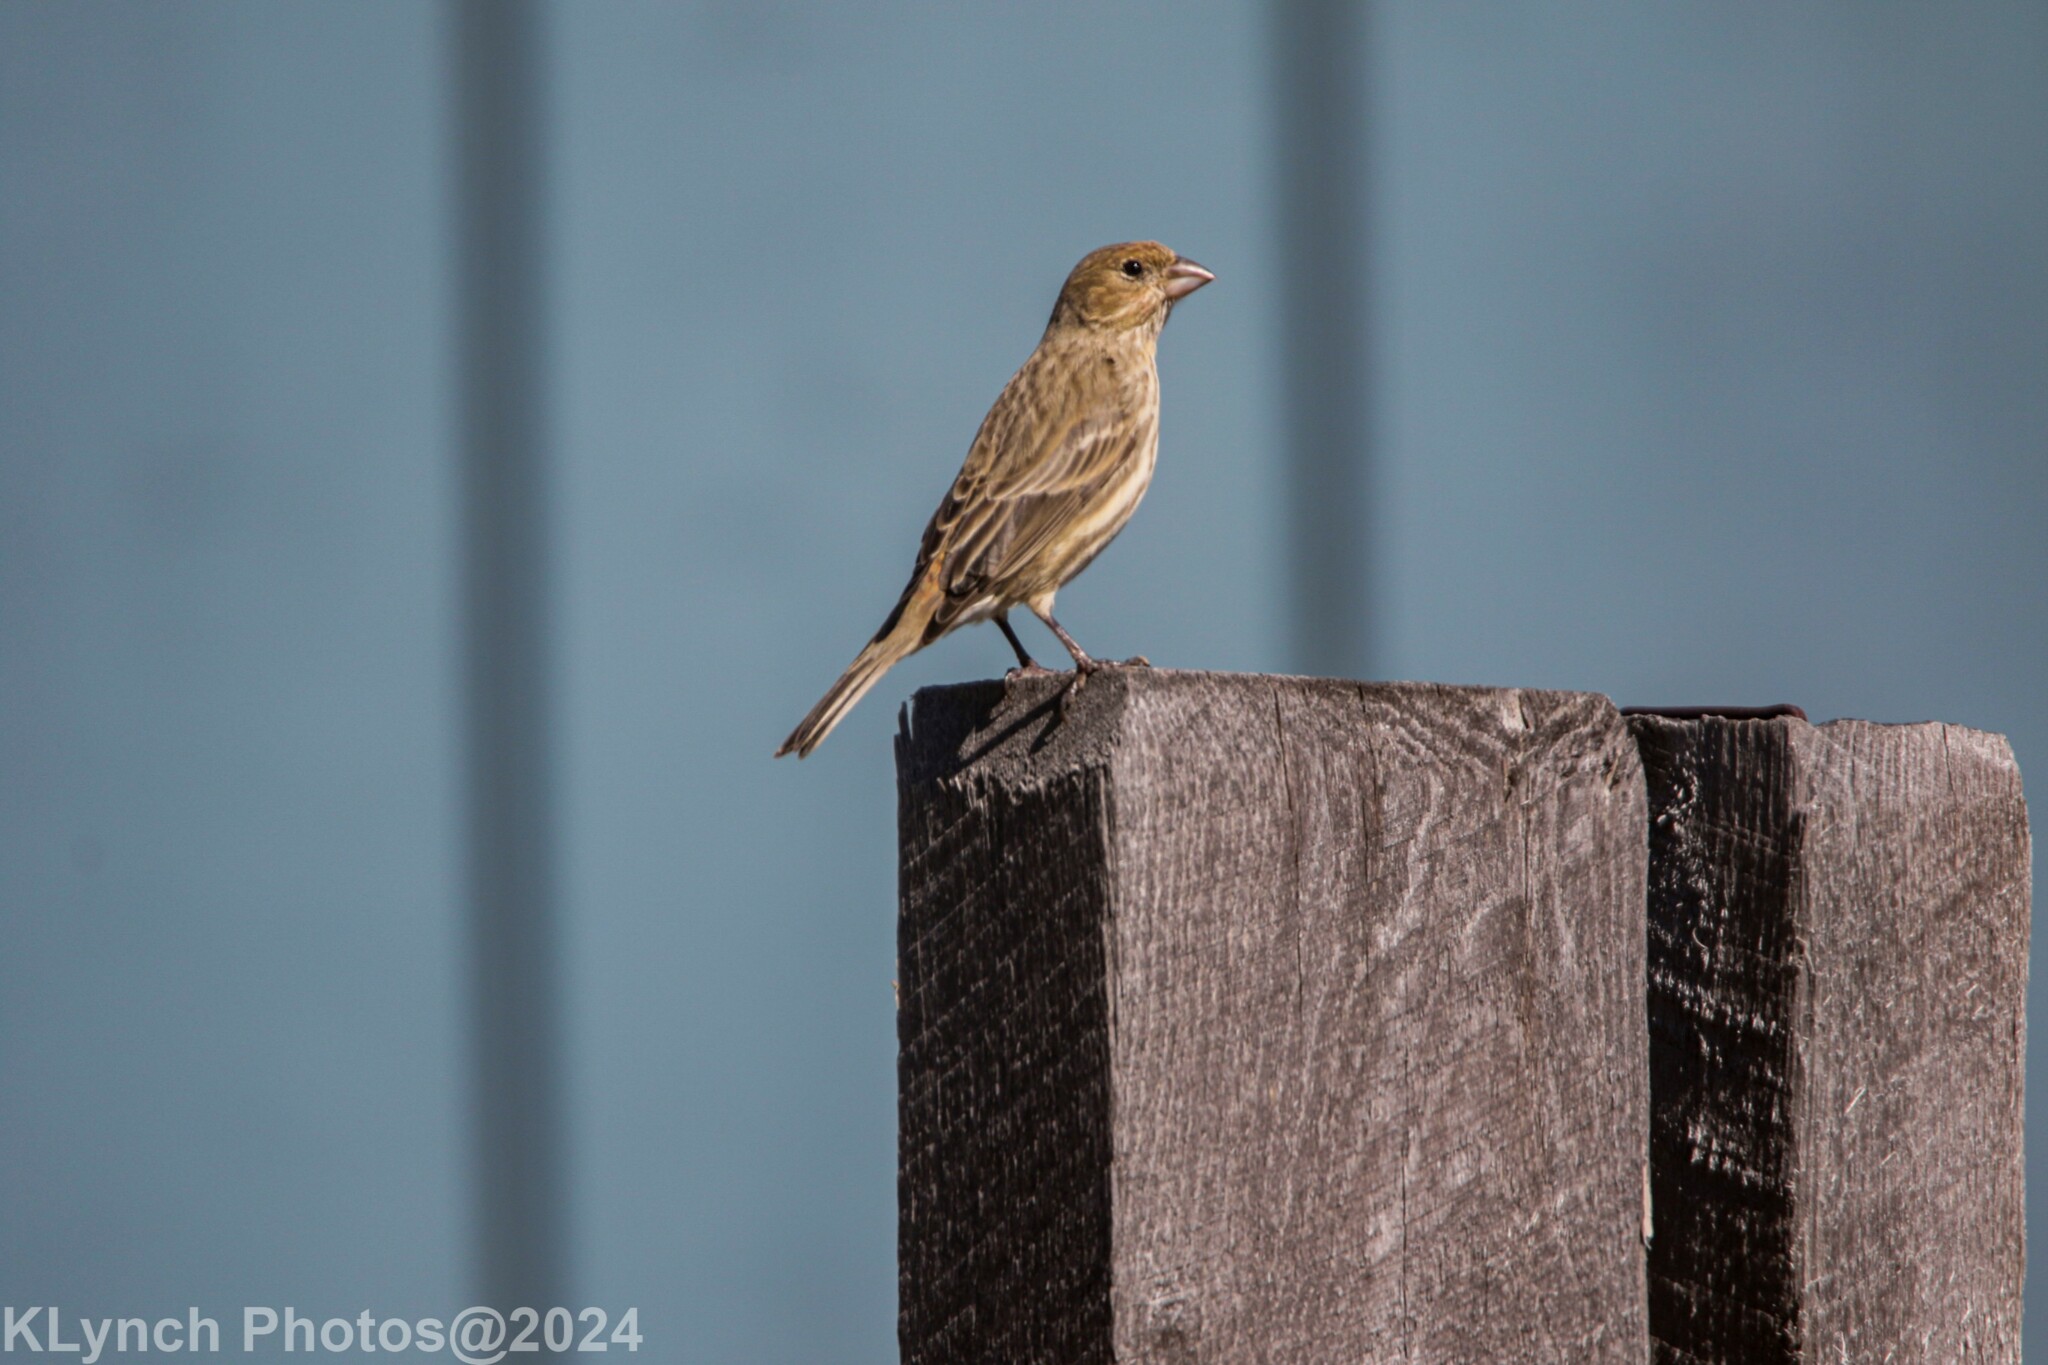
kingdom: Animalia
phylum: Chordata
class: Aves
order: Passeriformes
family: Fringillidae
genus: Haemorhous
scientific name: Haemorhous mexicanus
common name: House finch
